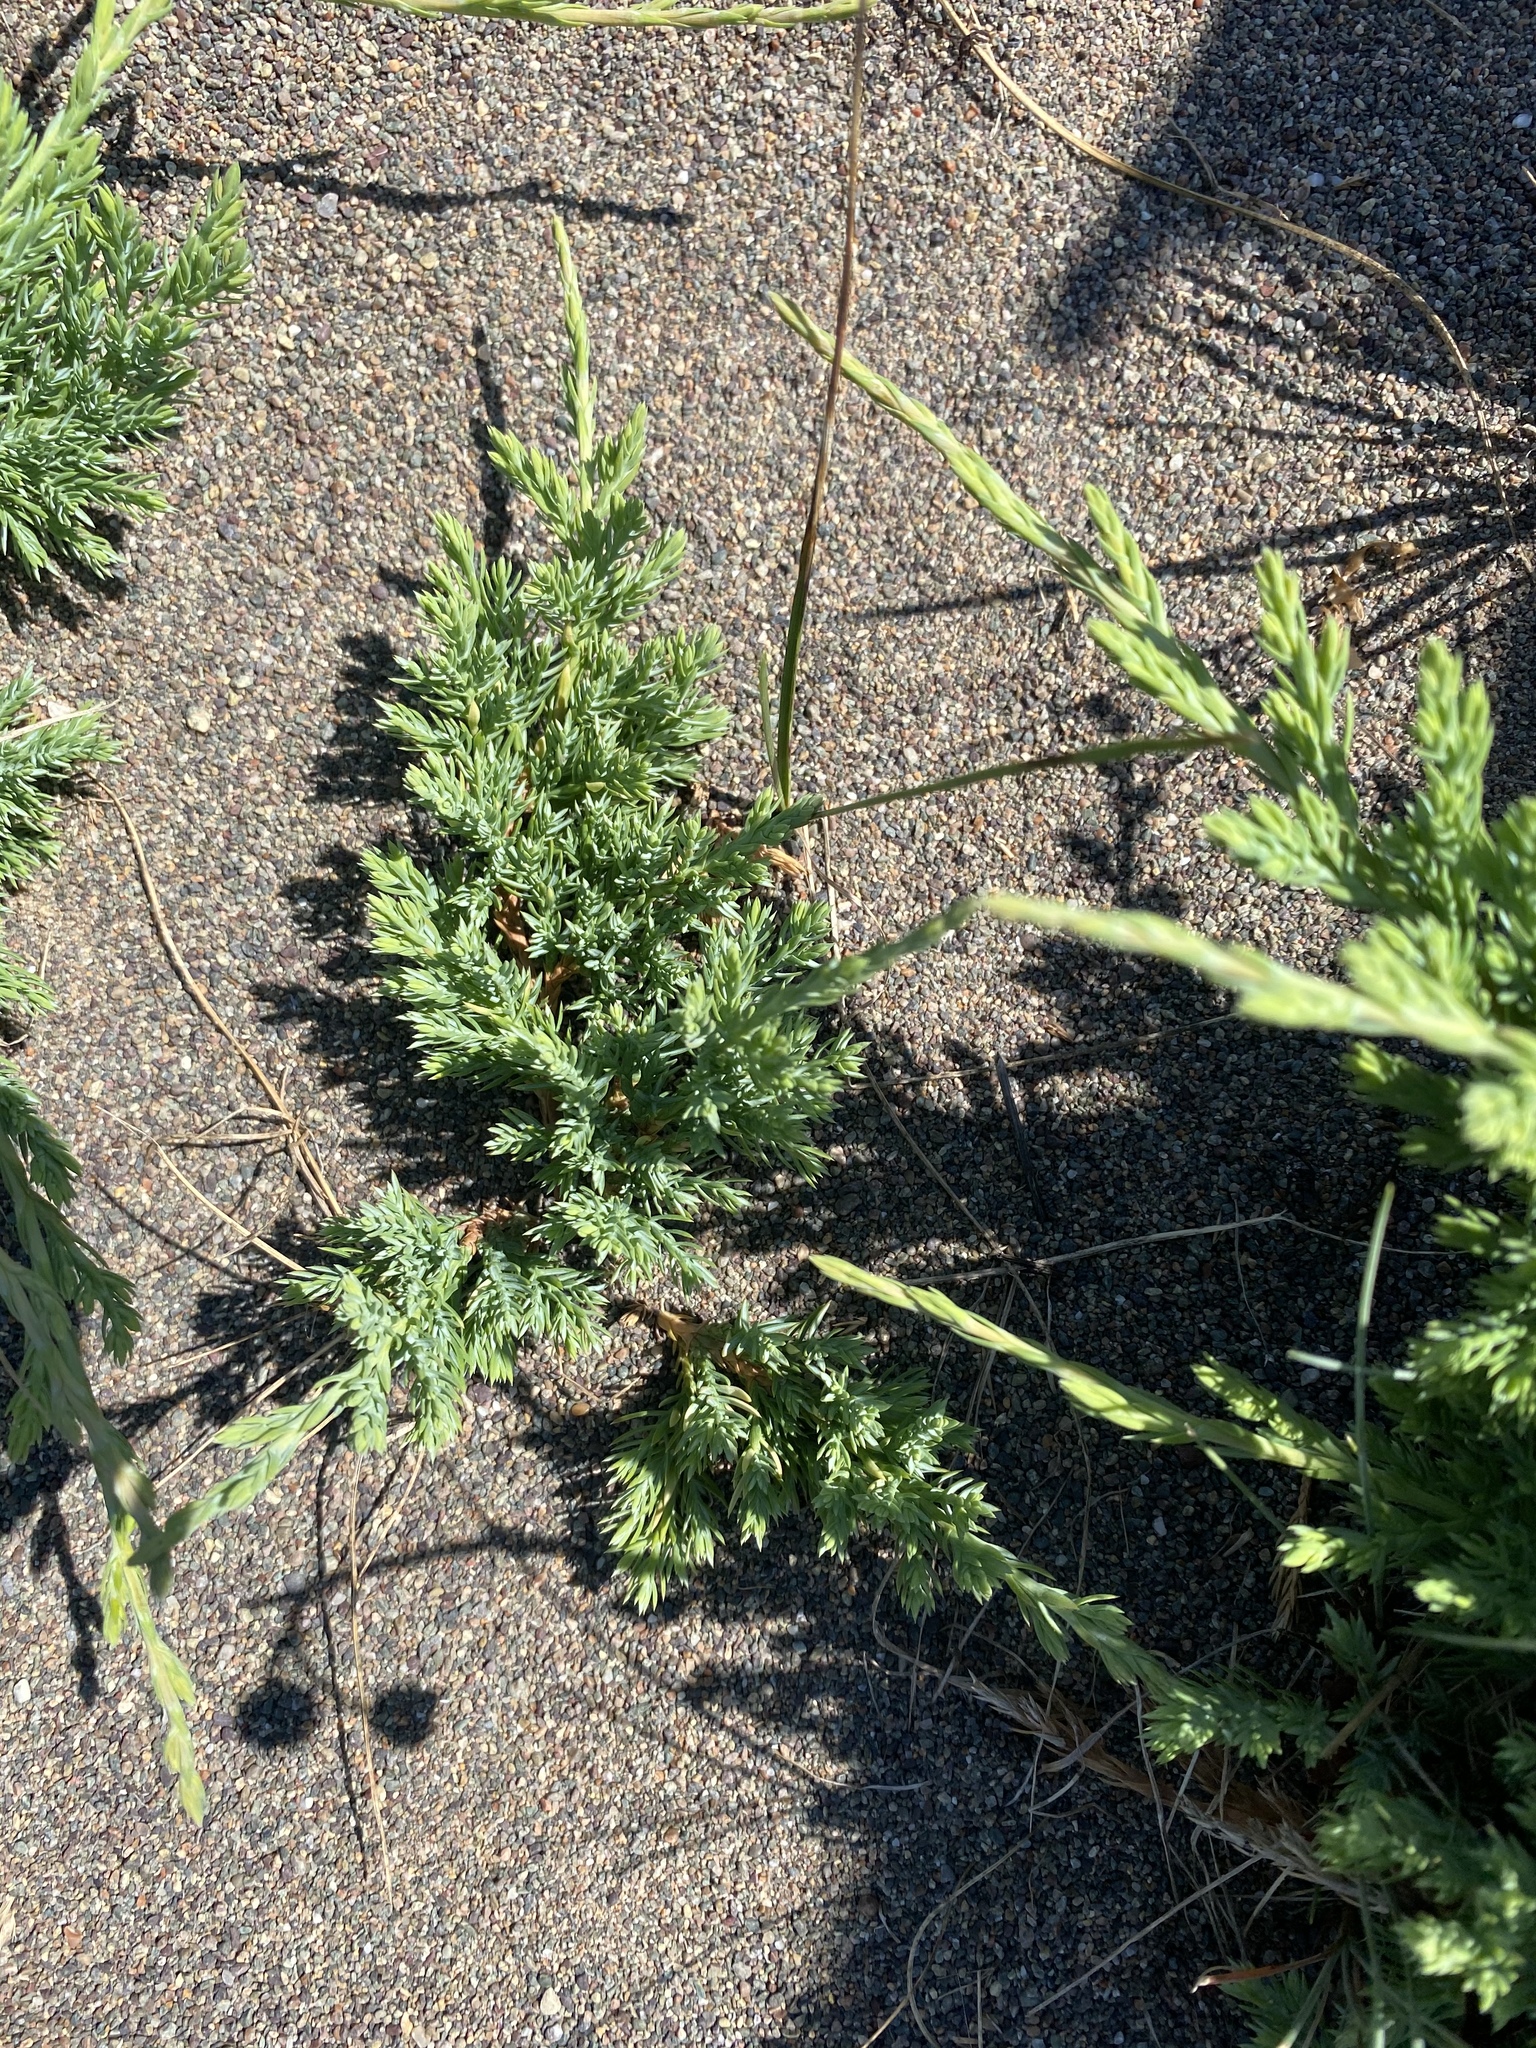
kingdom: Plantae
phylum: Tracheophyta
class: Pinopsida
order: Pinales
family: Cupressaceae
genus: Juniperus
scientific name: Juniperus communis
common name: Common juniper
